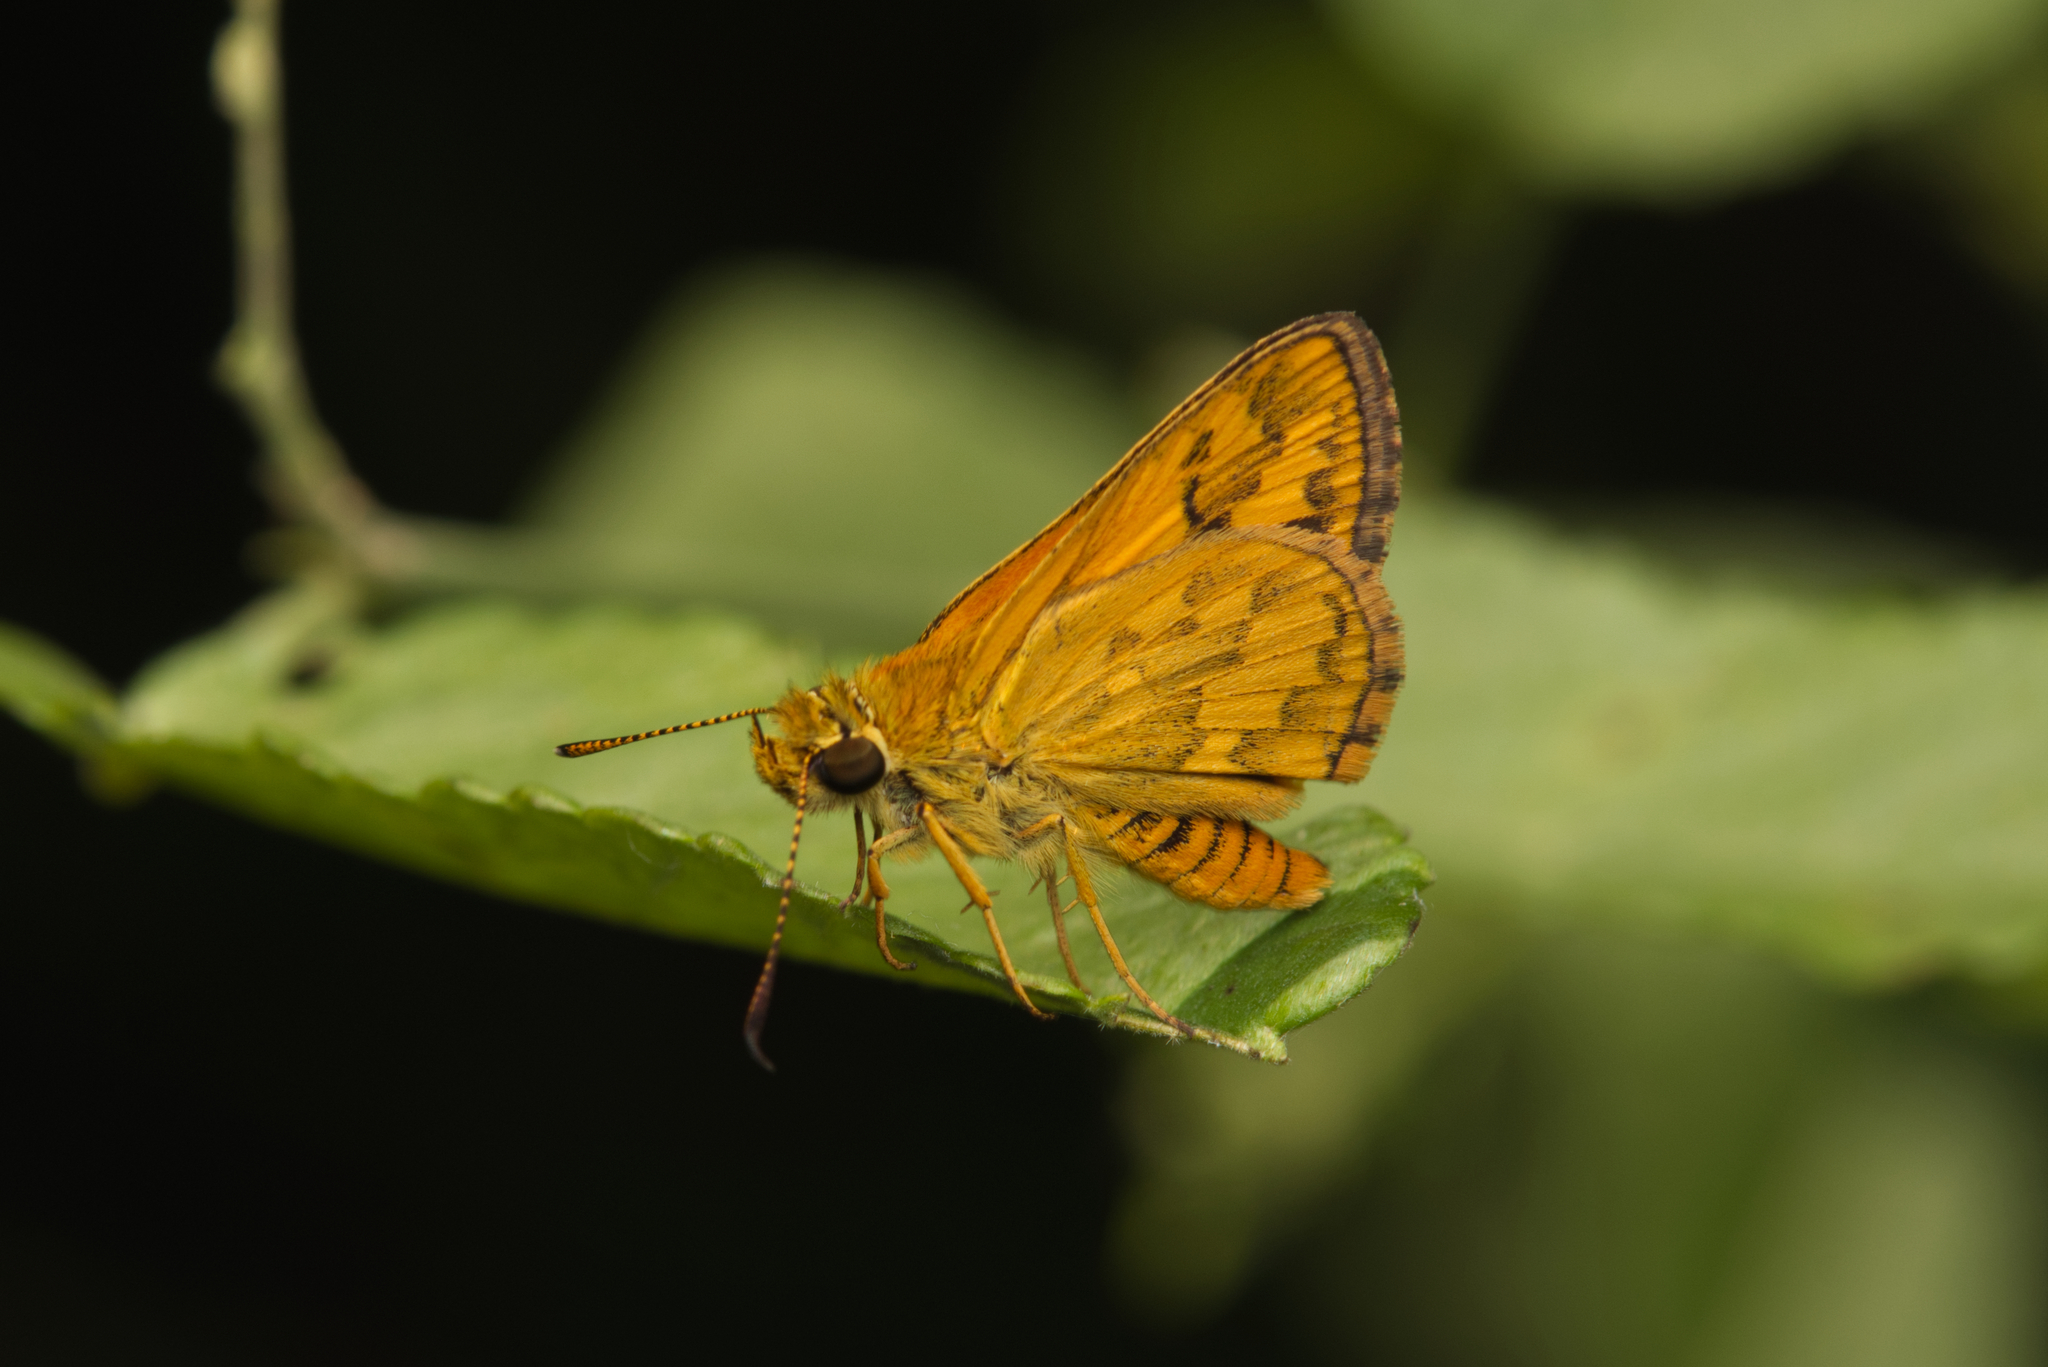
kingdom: Animalia
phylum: Arthropoda
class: Insecta
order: Lepidoptera
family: Hesperiidae
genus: Suniana
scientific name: Suniana sunias
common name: Wide-brand grass-dart
